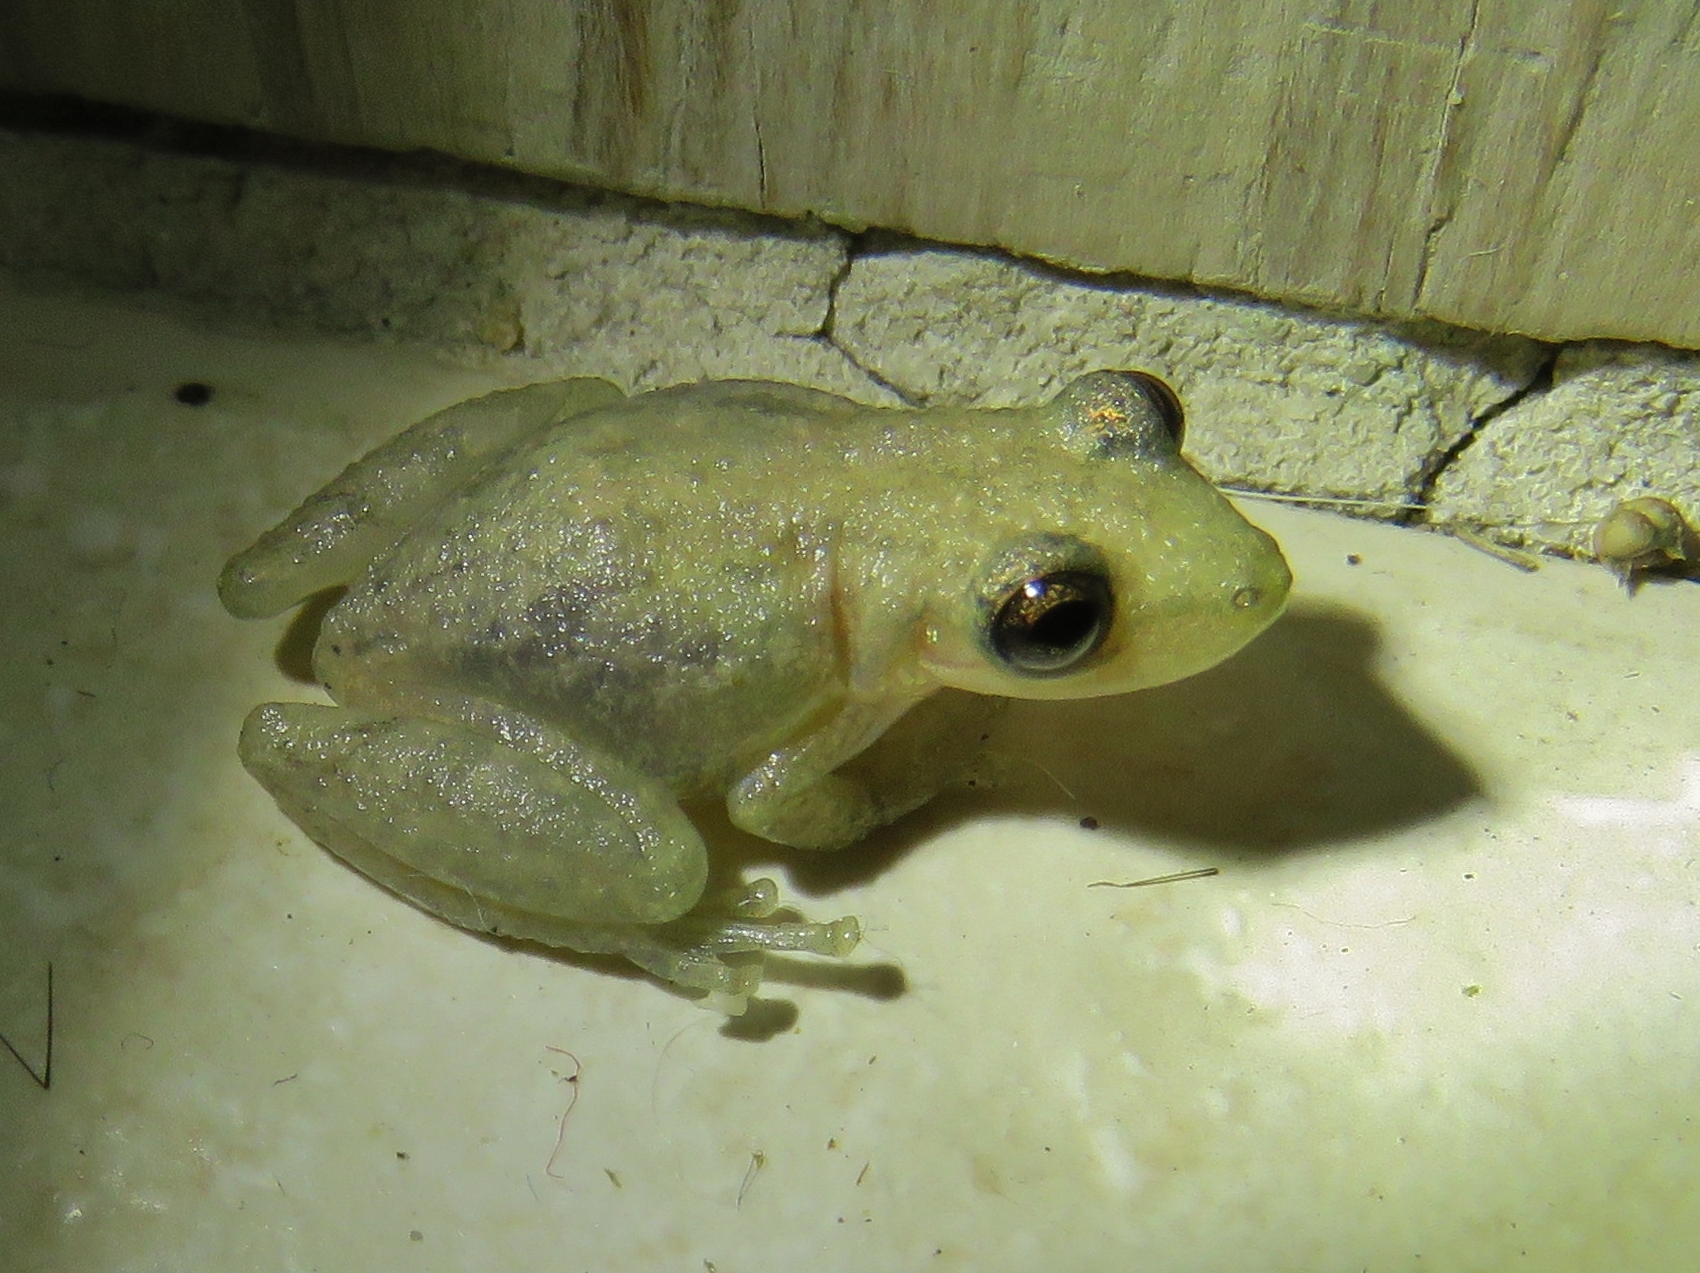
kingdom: Animalia
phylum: Chordata
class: Amphibia
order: Anura
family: Hylidae
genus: Scinax
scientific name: Scinax staufferi
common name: Stauffer's long-nosed treefrog
